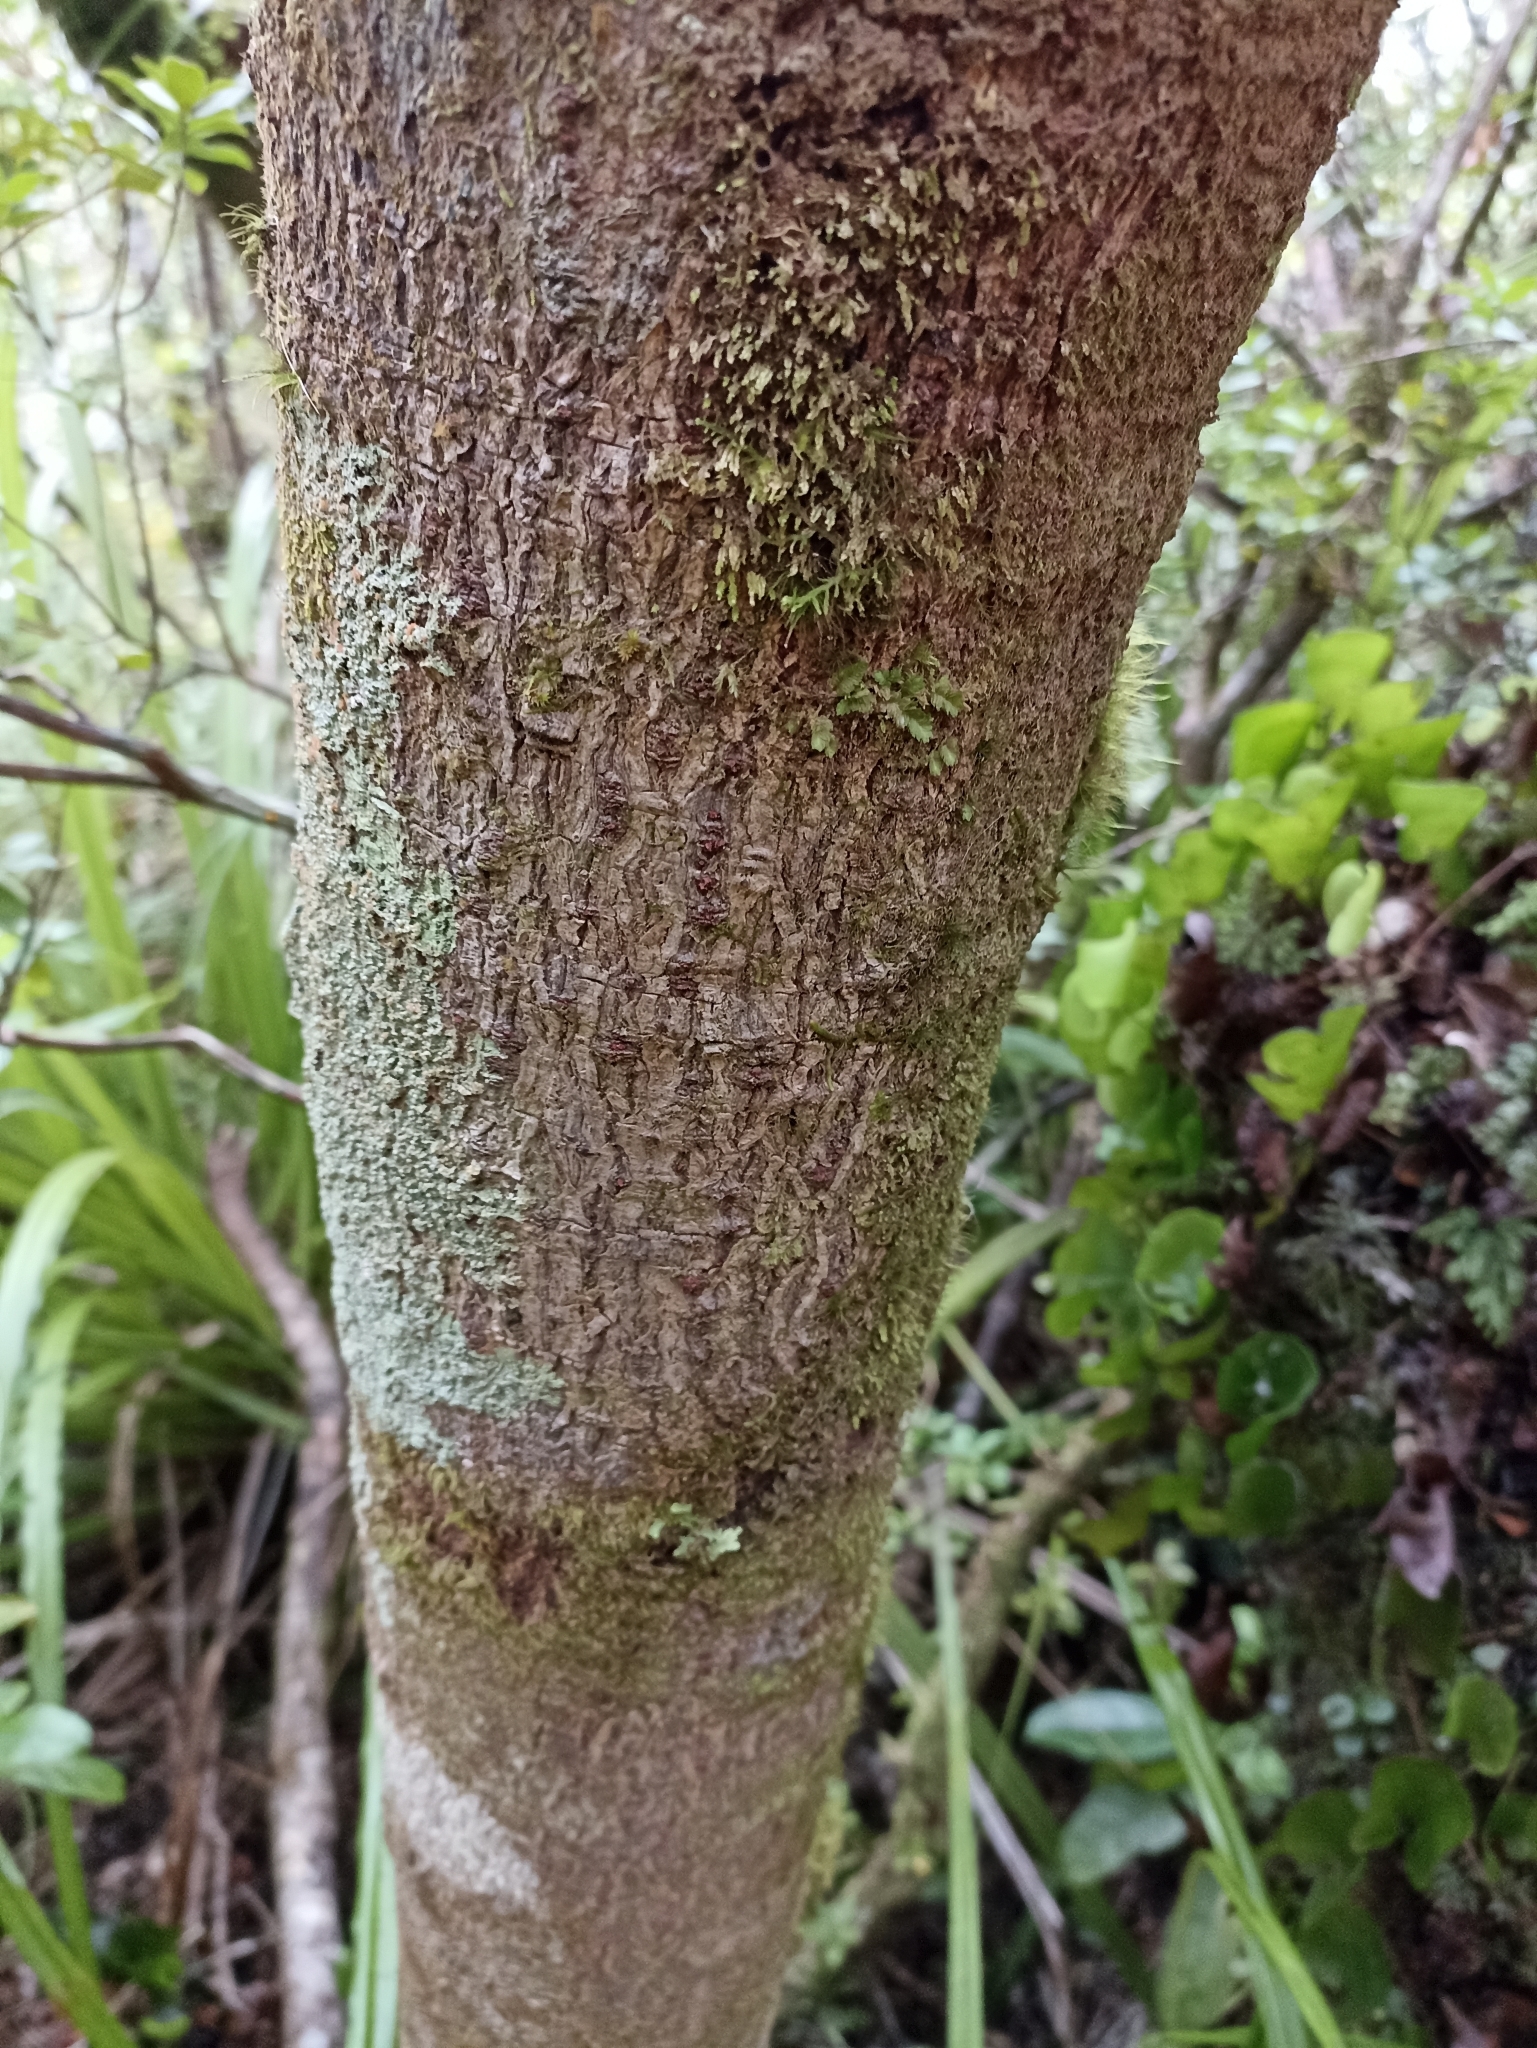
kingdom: Plantae
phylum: Tracheophyta
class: Pinopsida
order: Pinales
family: Phyllocladaceae
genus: Phyllocladus
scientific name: Phyllocladus toatoa
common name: Celery-top pine
